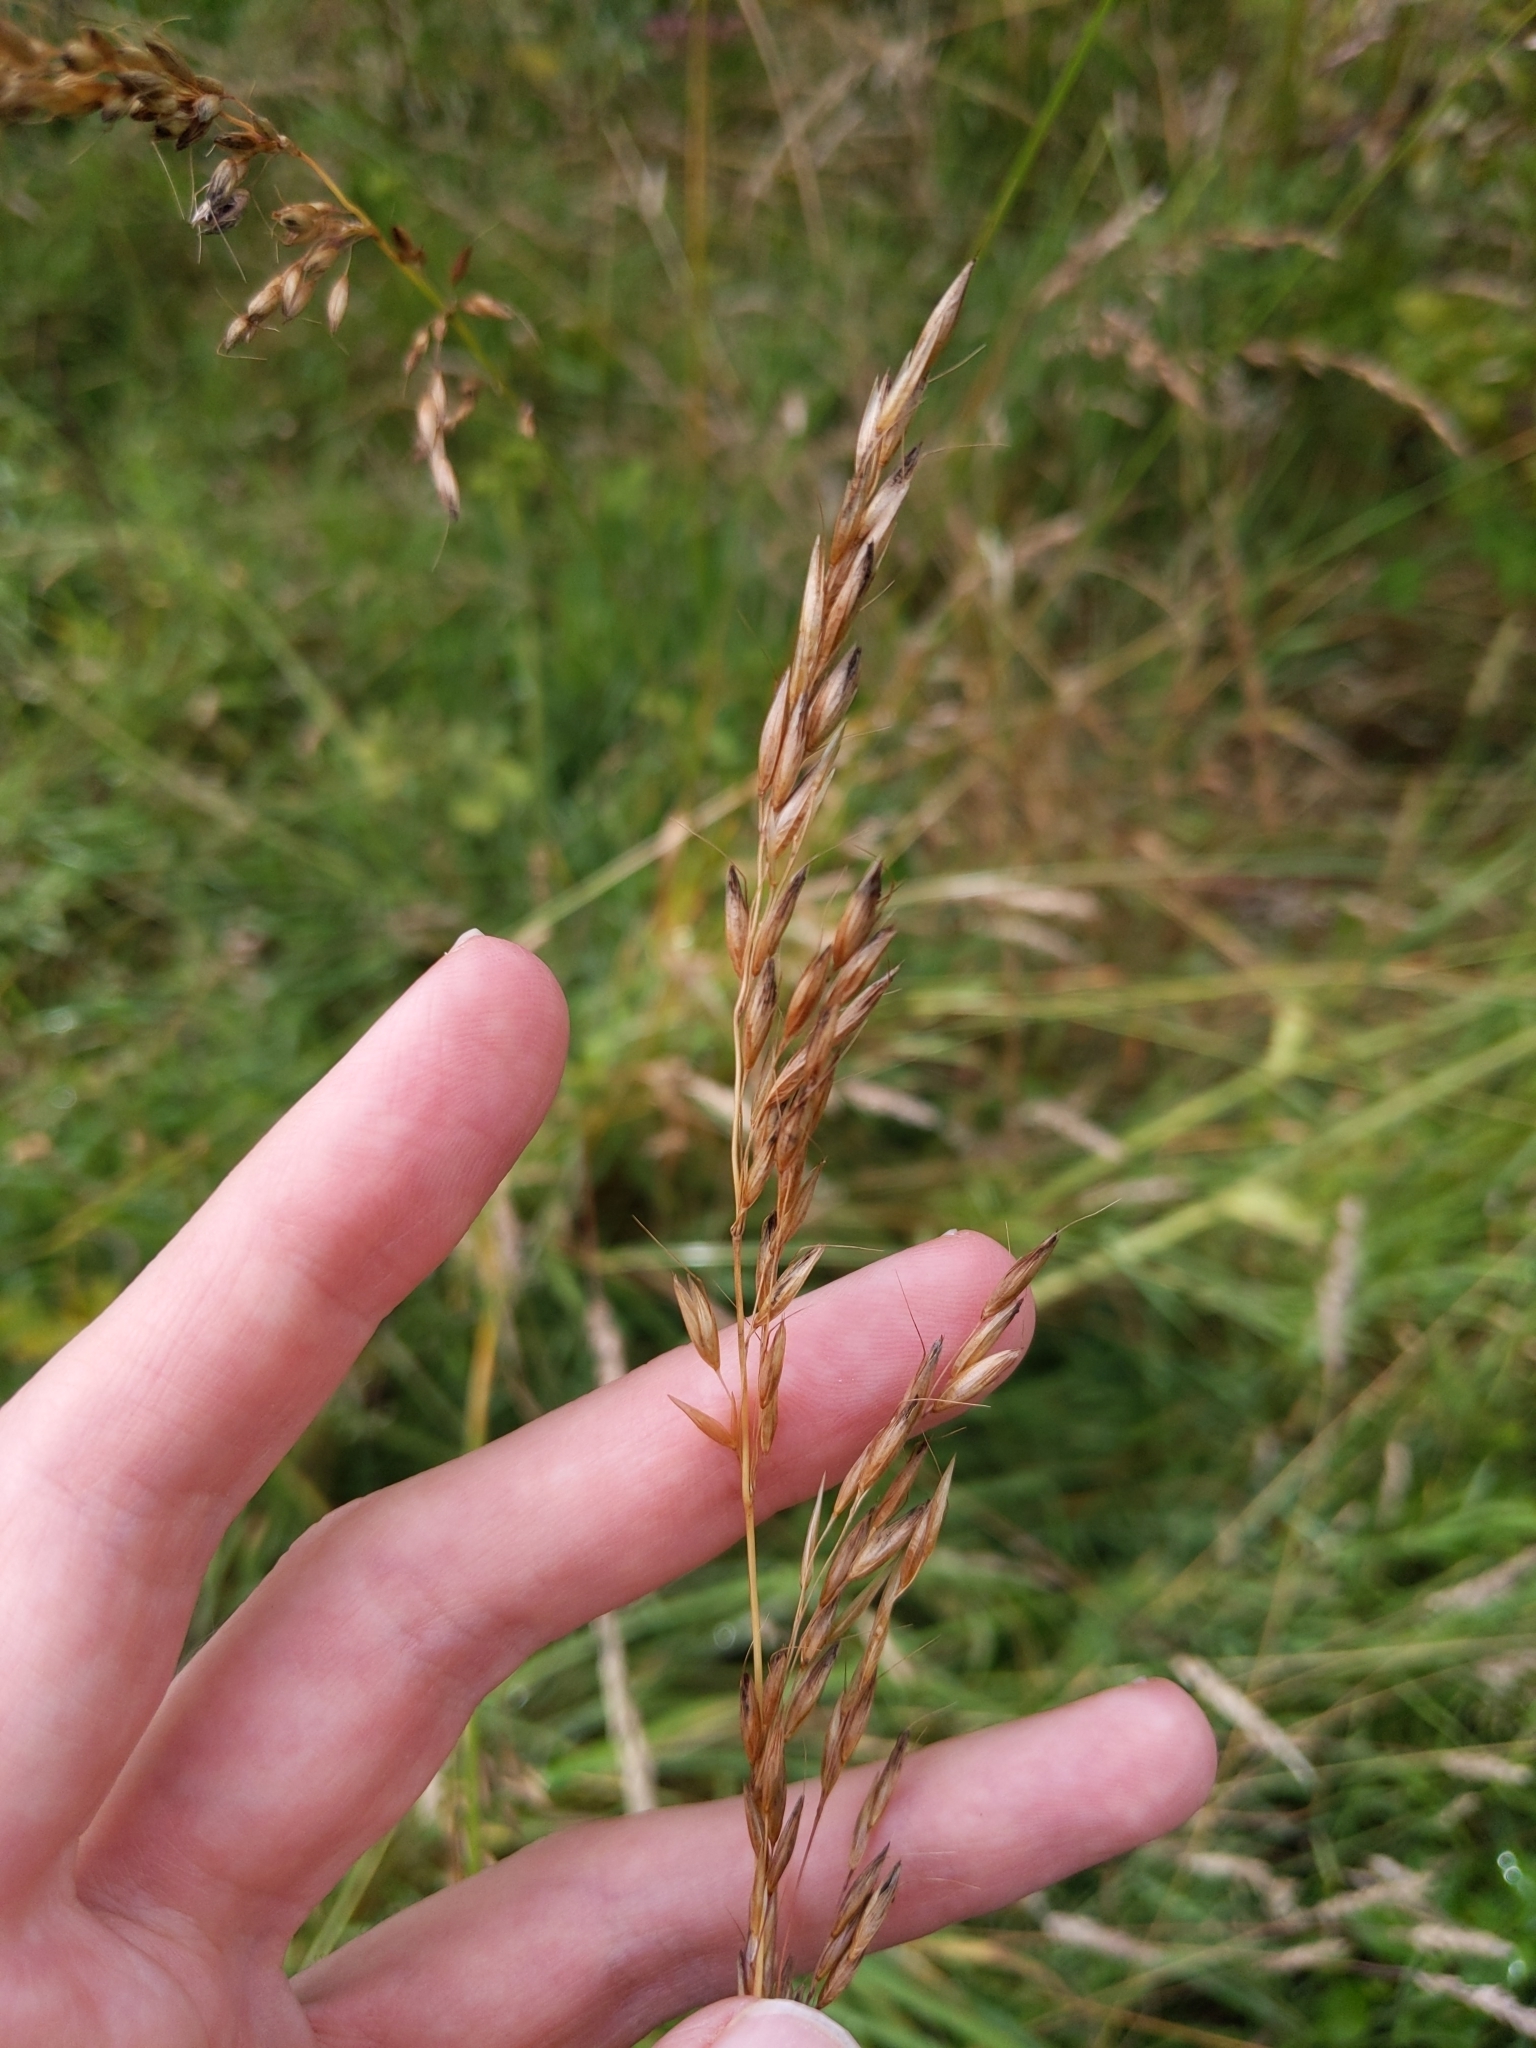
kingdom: Plantae
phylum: Tracheophyta
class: Liliopsida
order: Poales
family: Poaceae
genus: Arrhenatherum
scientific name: Arrhenatherum elatius
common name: Tall oatgrass
